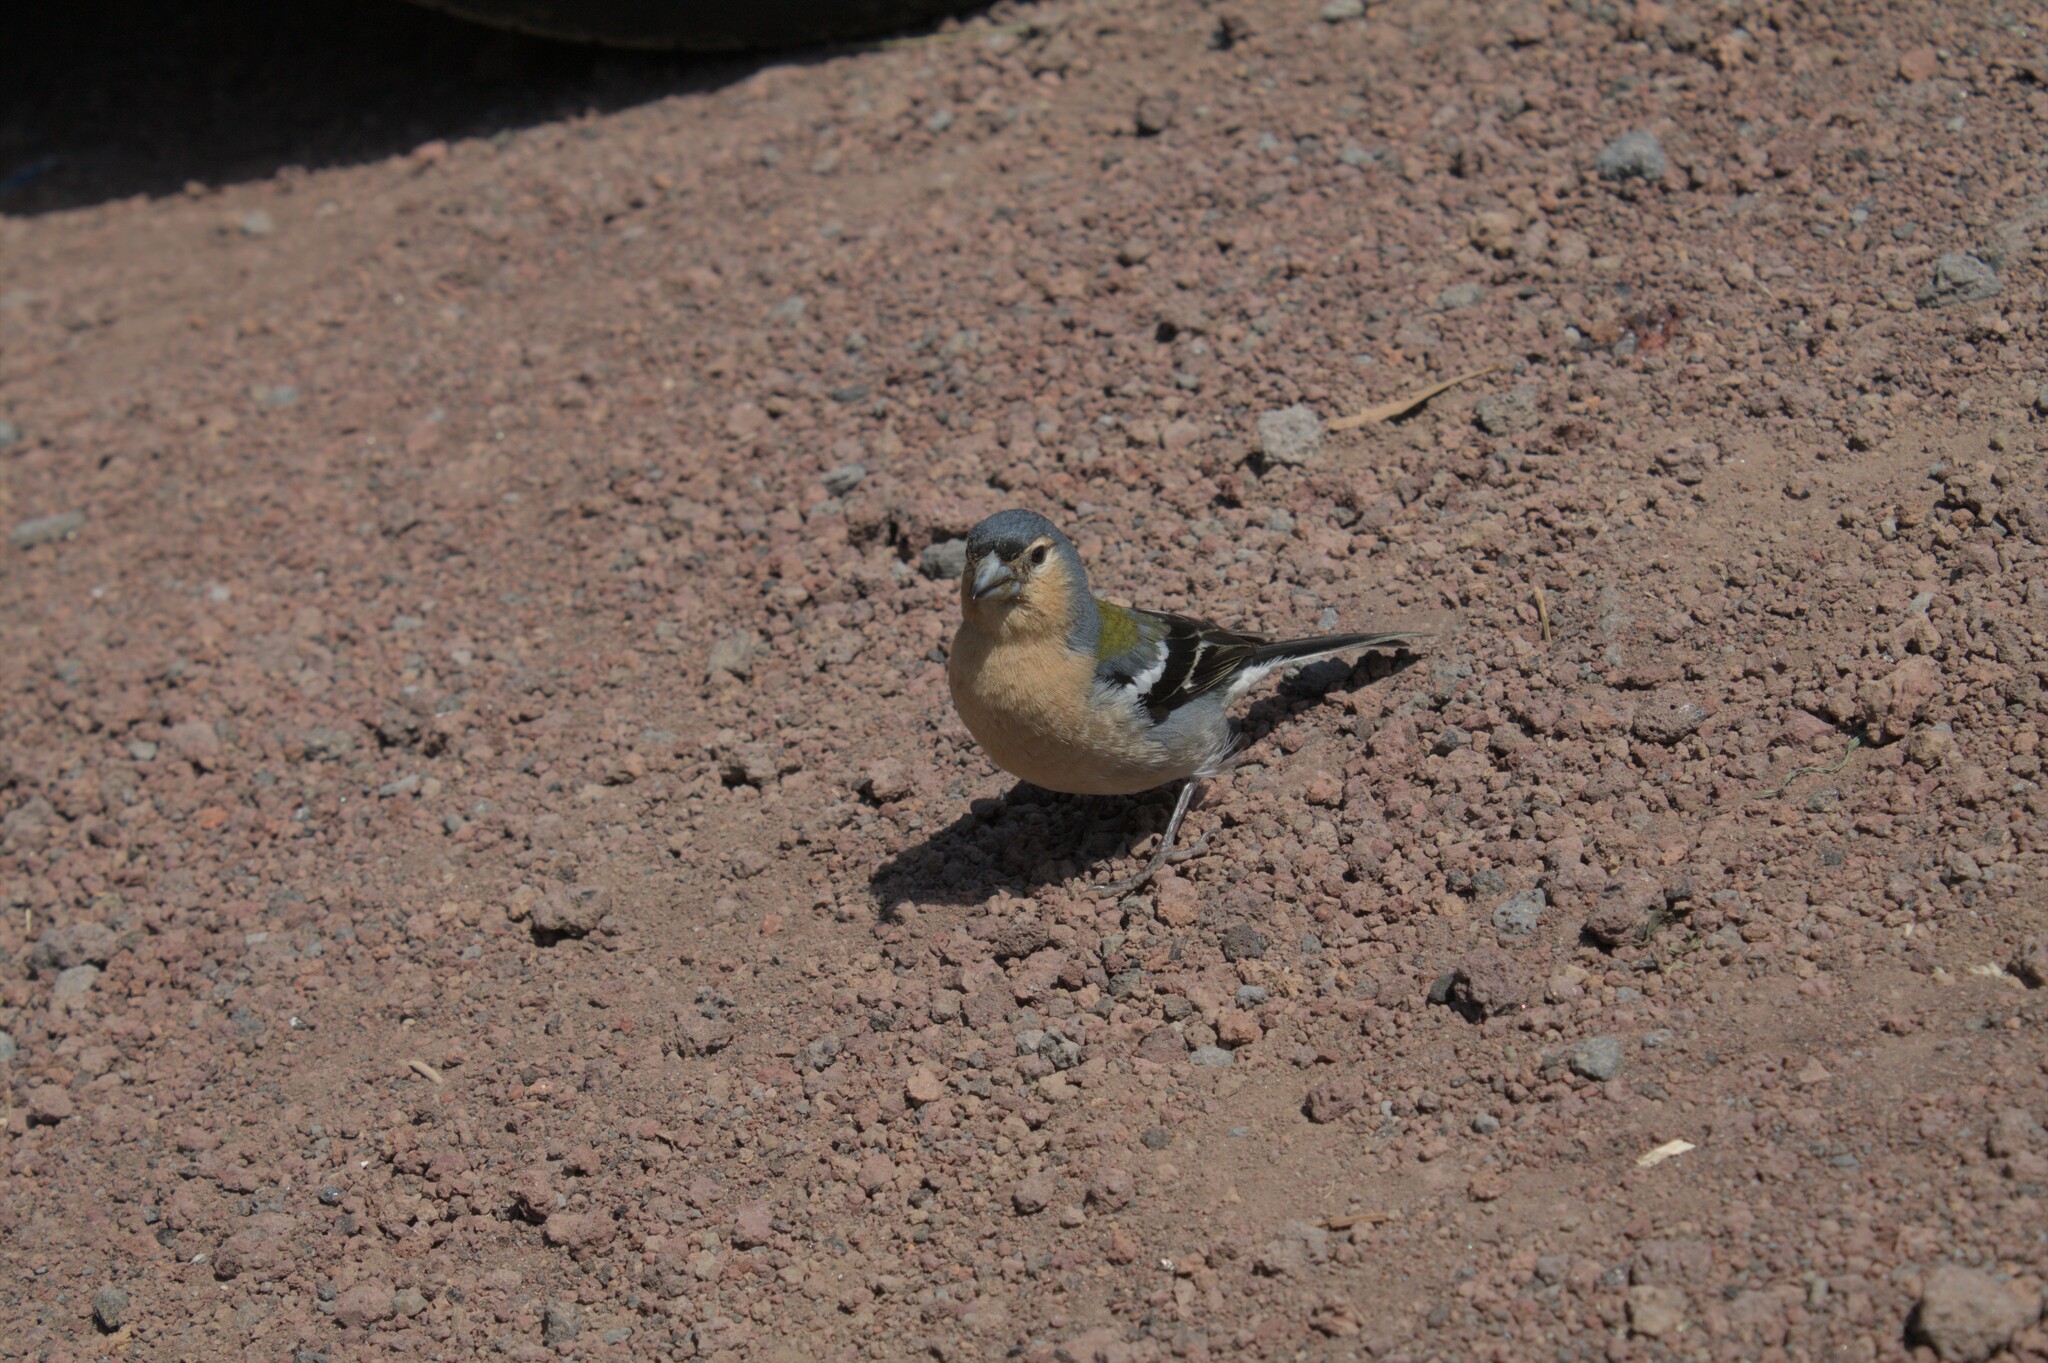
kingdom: Animalia
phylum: Chordata
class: Aves
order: Passeriformes
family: Fringillidae
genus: Fringilla
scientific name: Fringilla moreletti
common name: Azores chaffinch
